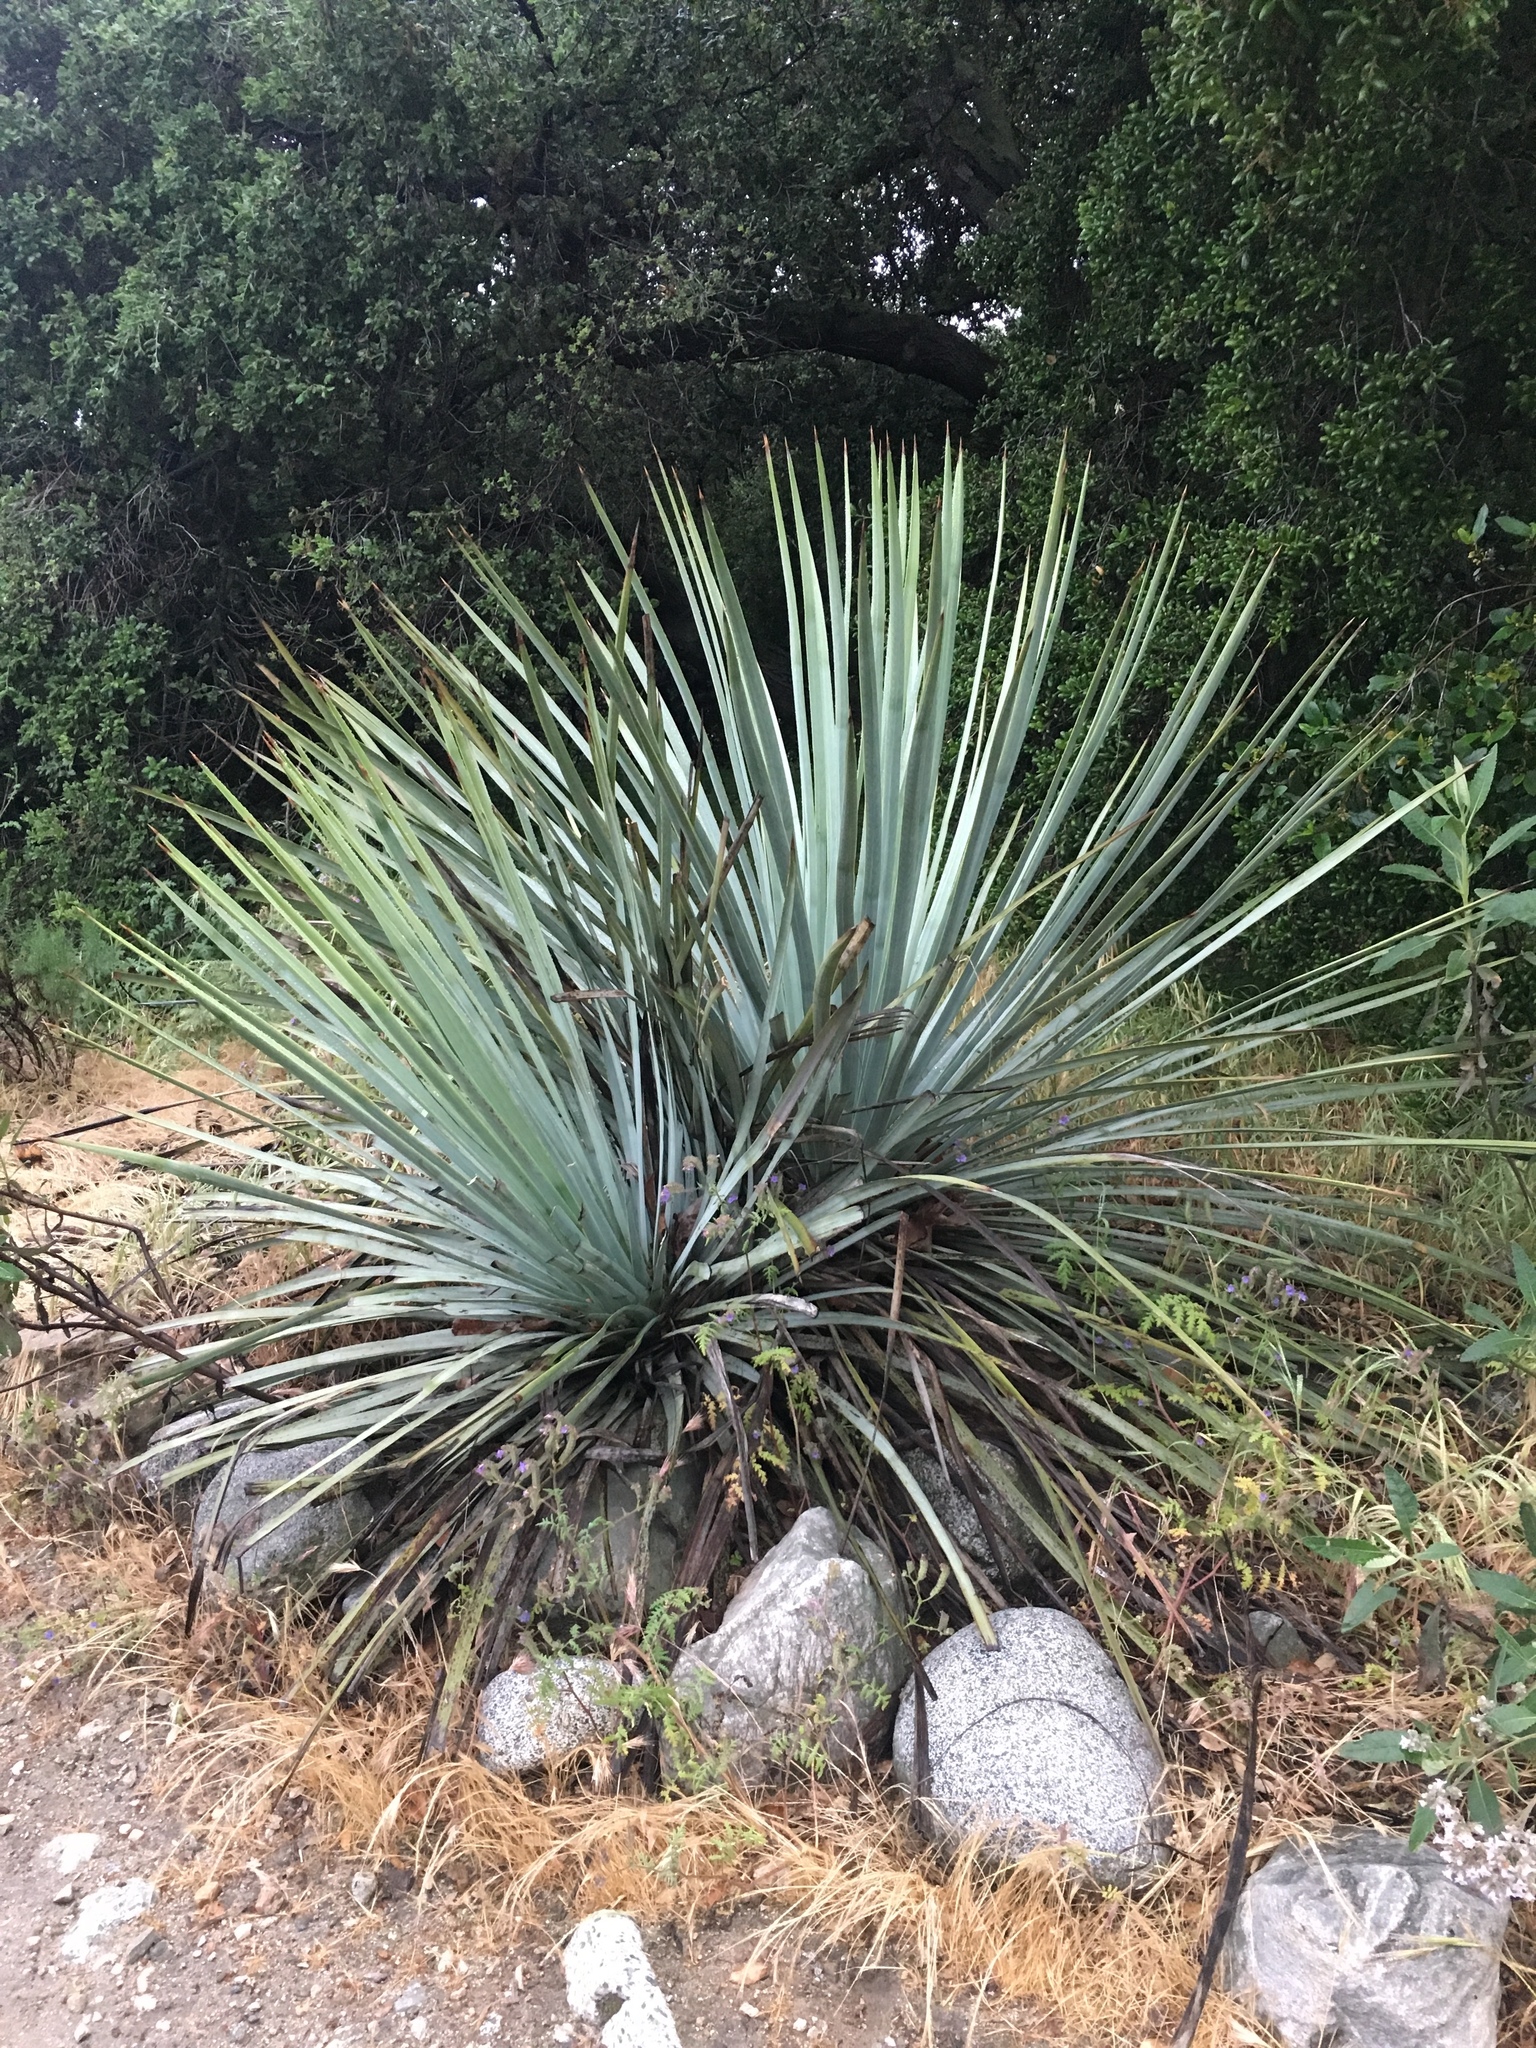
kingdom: Plantae
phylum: Tracheophyta
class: Liliopsida
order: Asparagales
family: Asparagaceae
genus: Hesperoyucca
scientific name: Hesperoyucca whipplei
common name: Our lord's-candle
